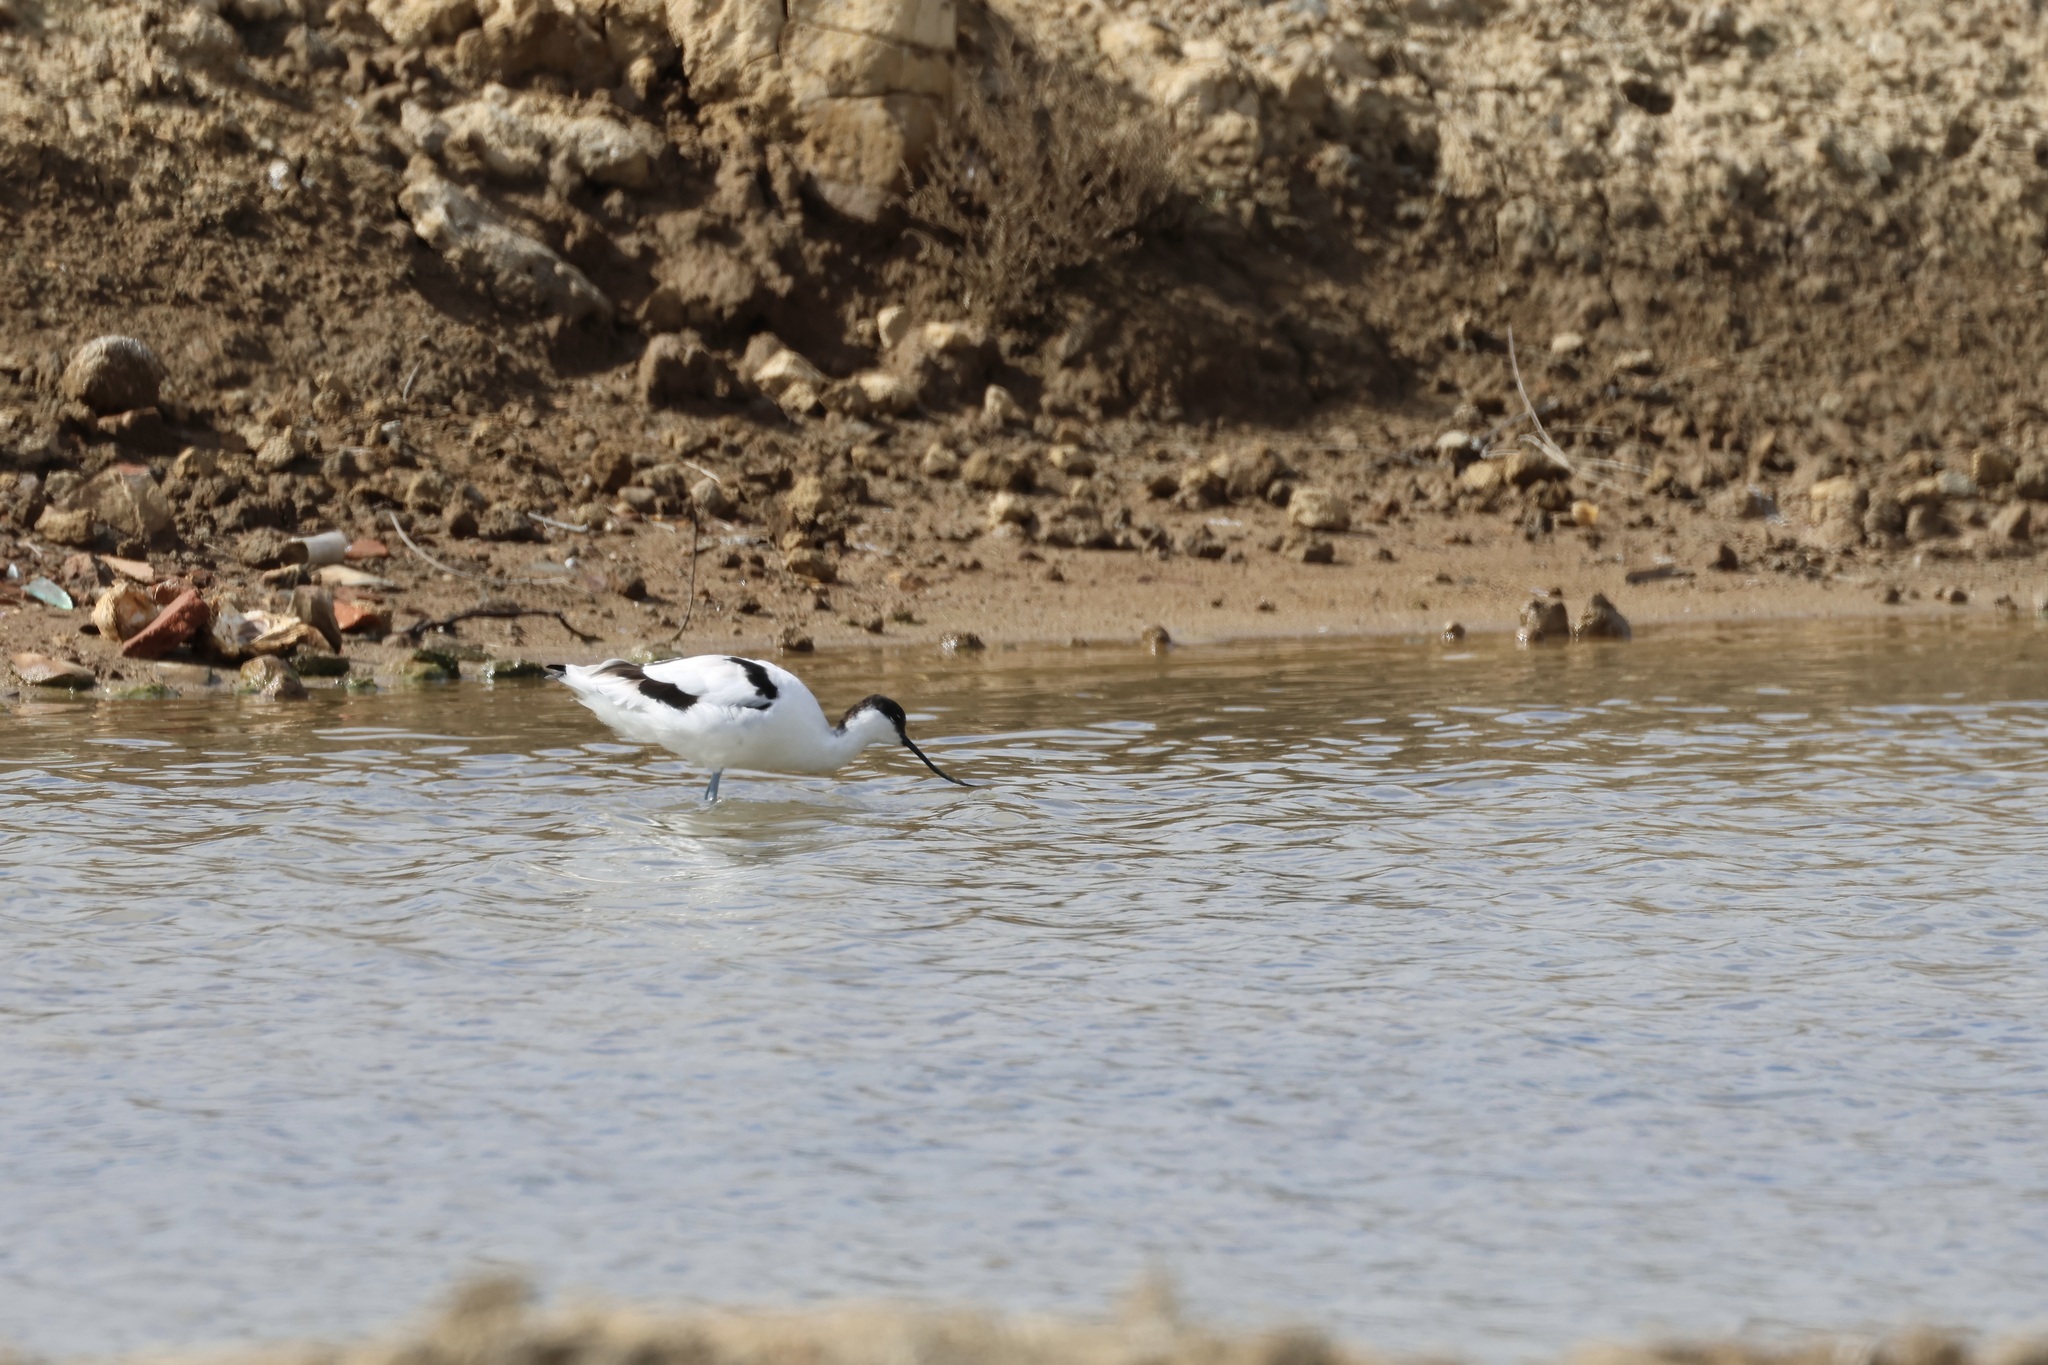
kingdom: Animalia
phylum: Chordata
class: Aves
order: Charadriiformes
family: Recurvirostridae
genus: Recurvirostra
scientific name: Recurvirostra avosetta
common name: Pied avocet
